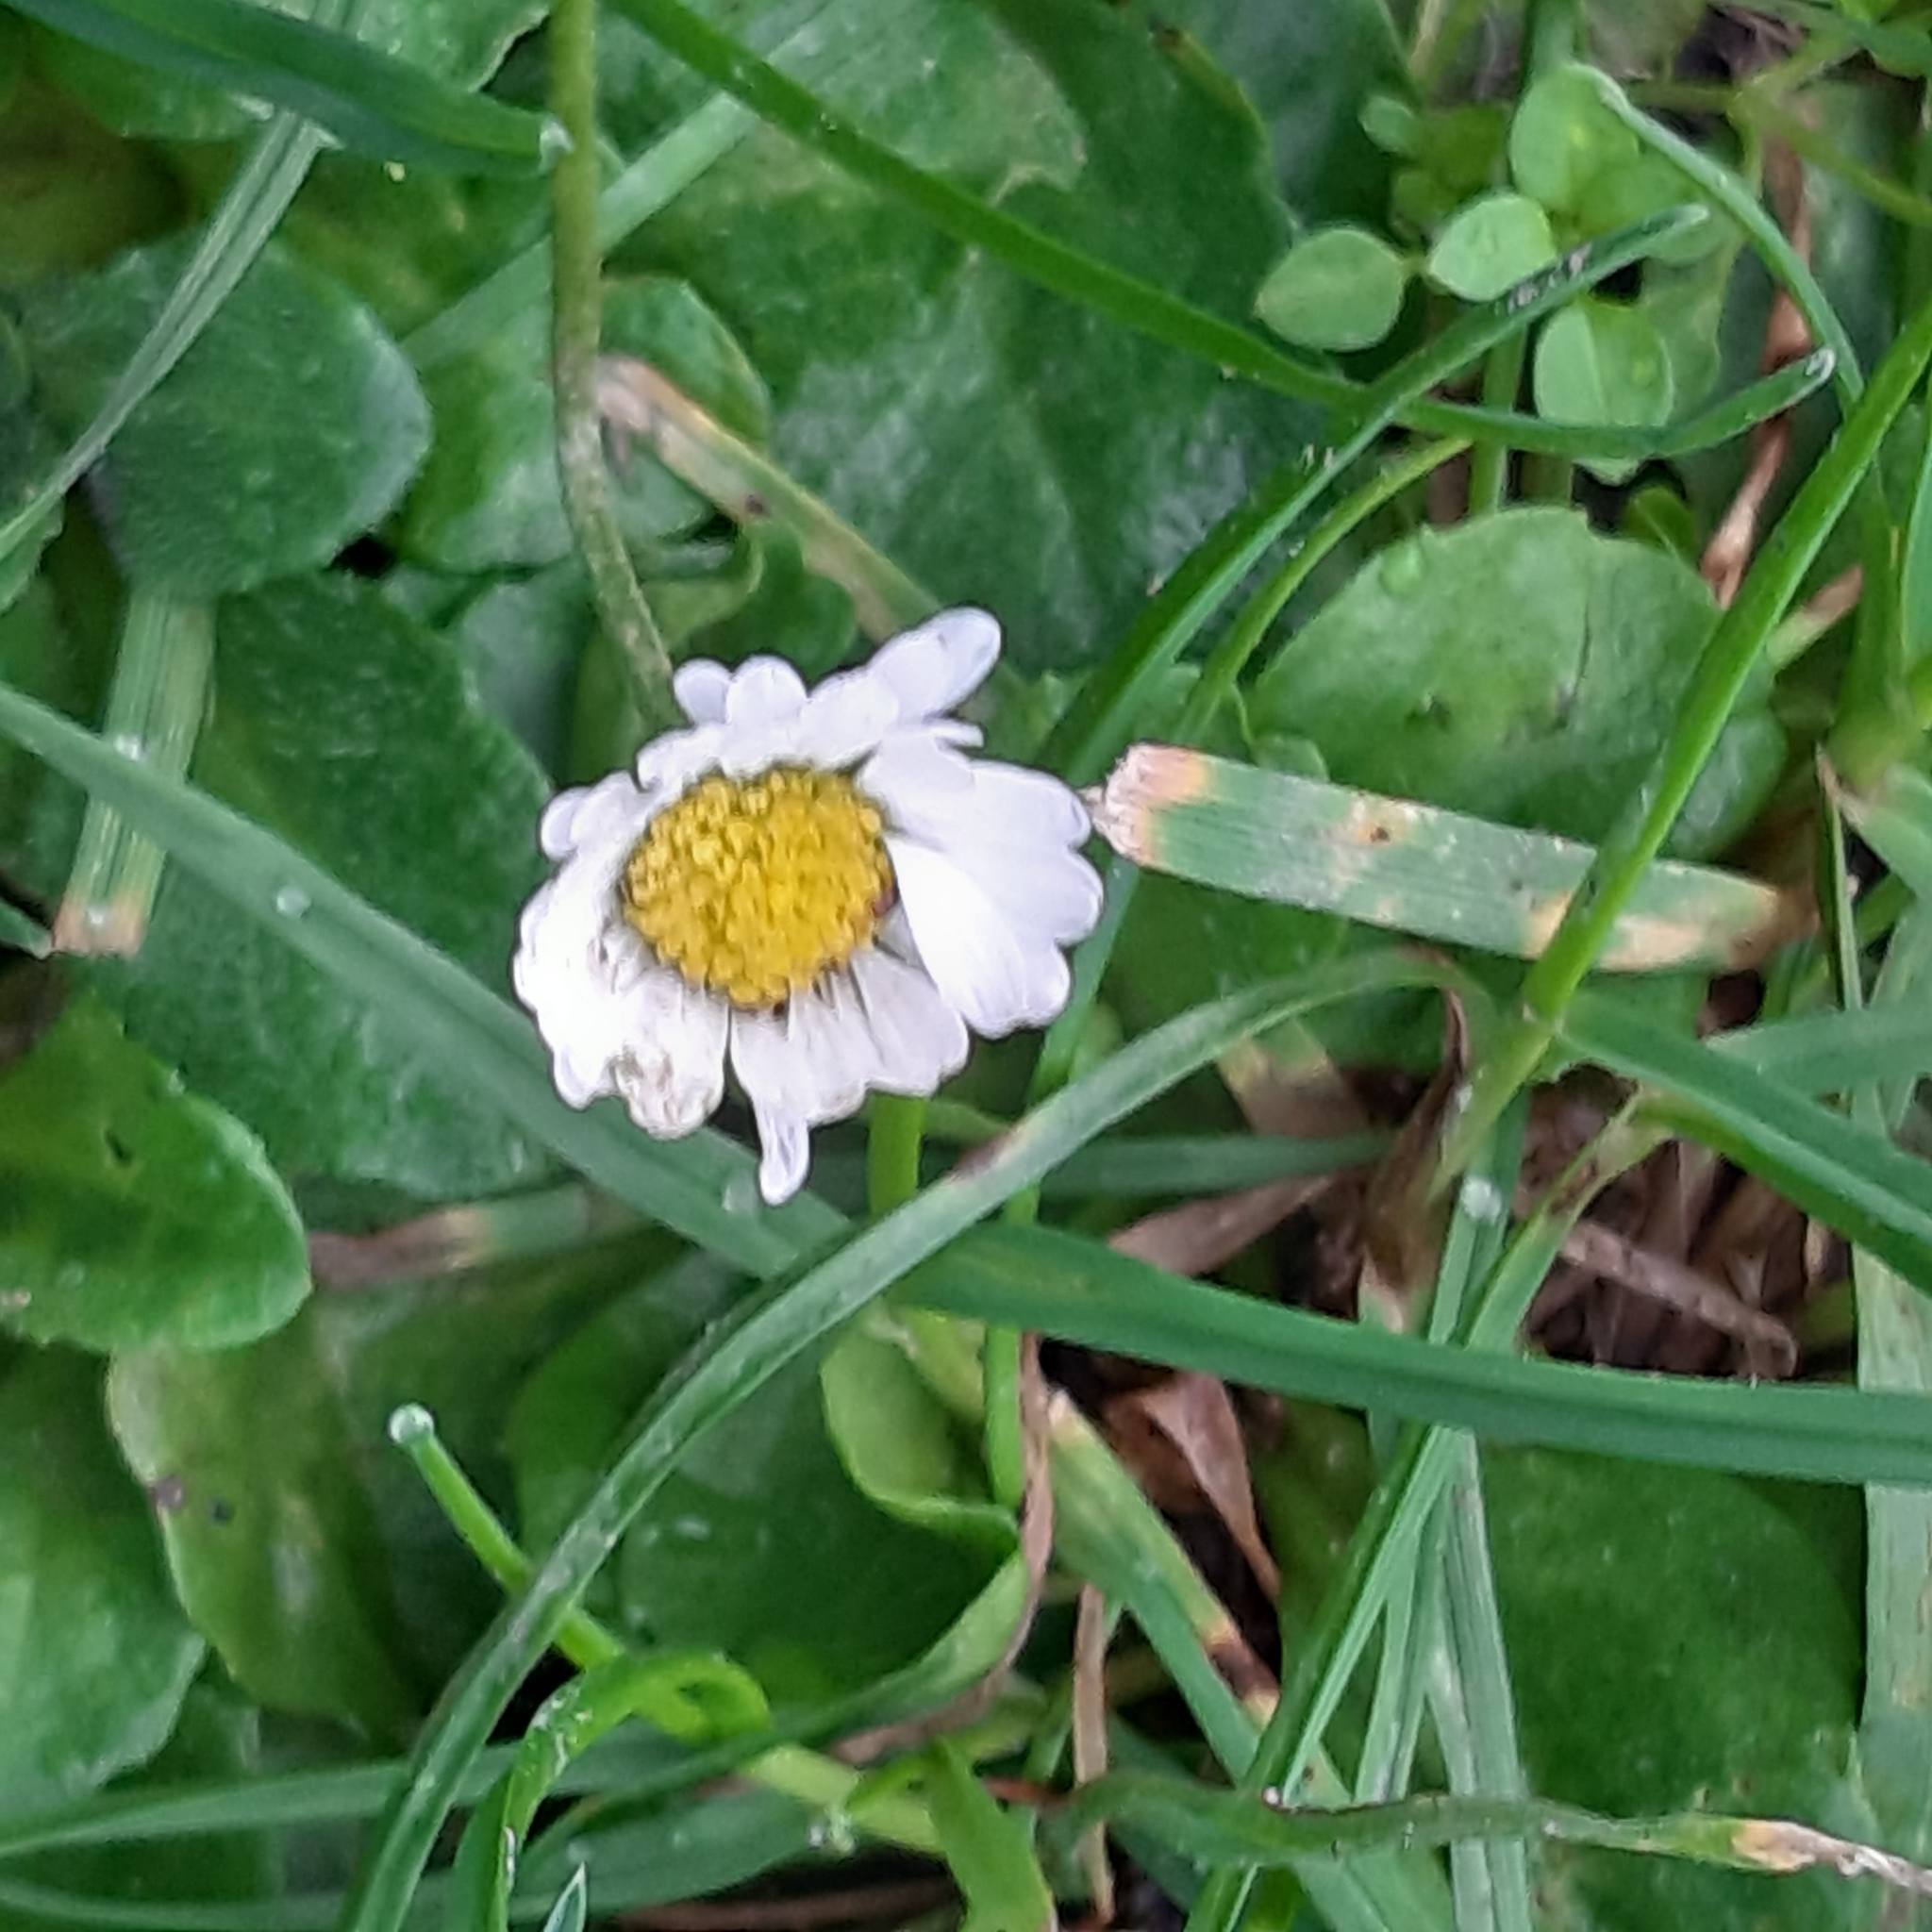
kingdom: Plantae
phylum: Tracheophyta
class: Magnoliopsida
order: Asterales
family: Asteraceae
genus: Bellis
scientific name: Bellis perennis
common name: Lawndaisy
